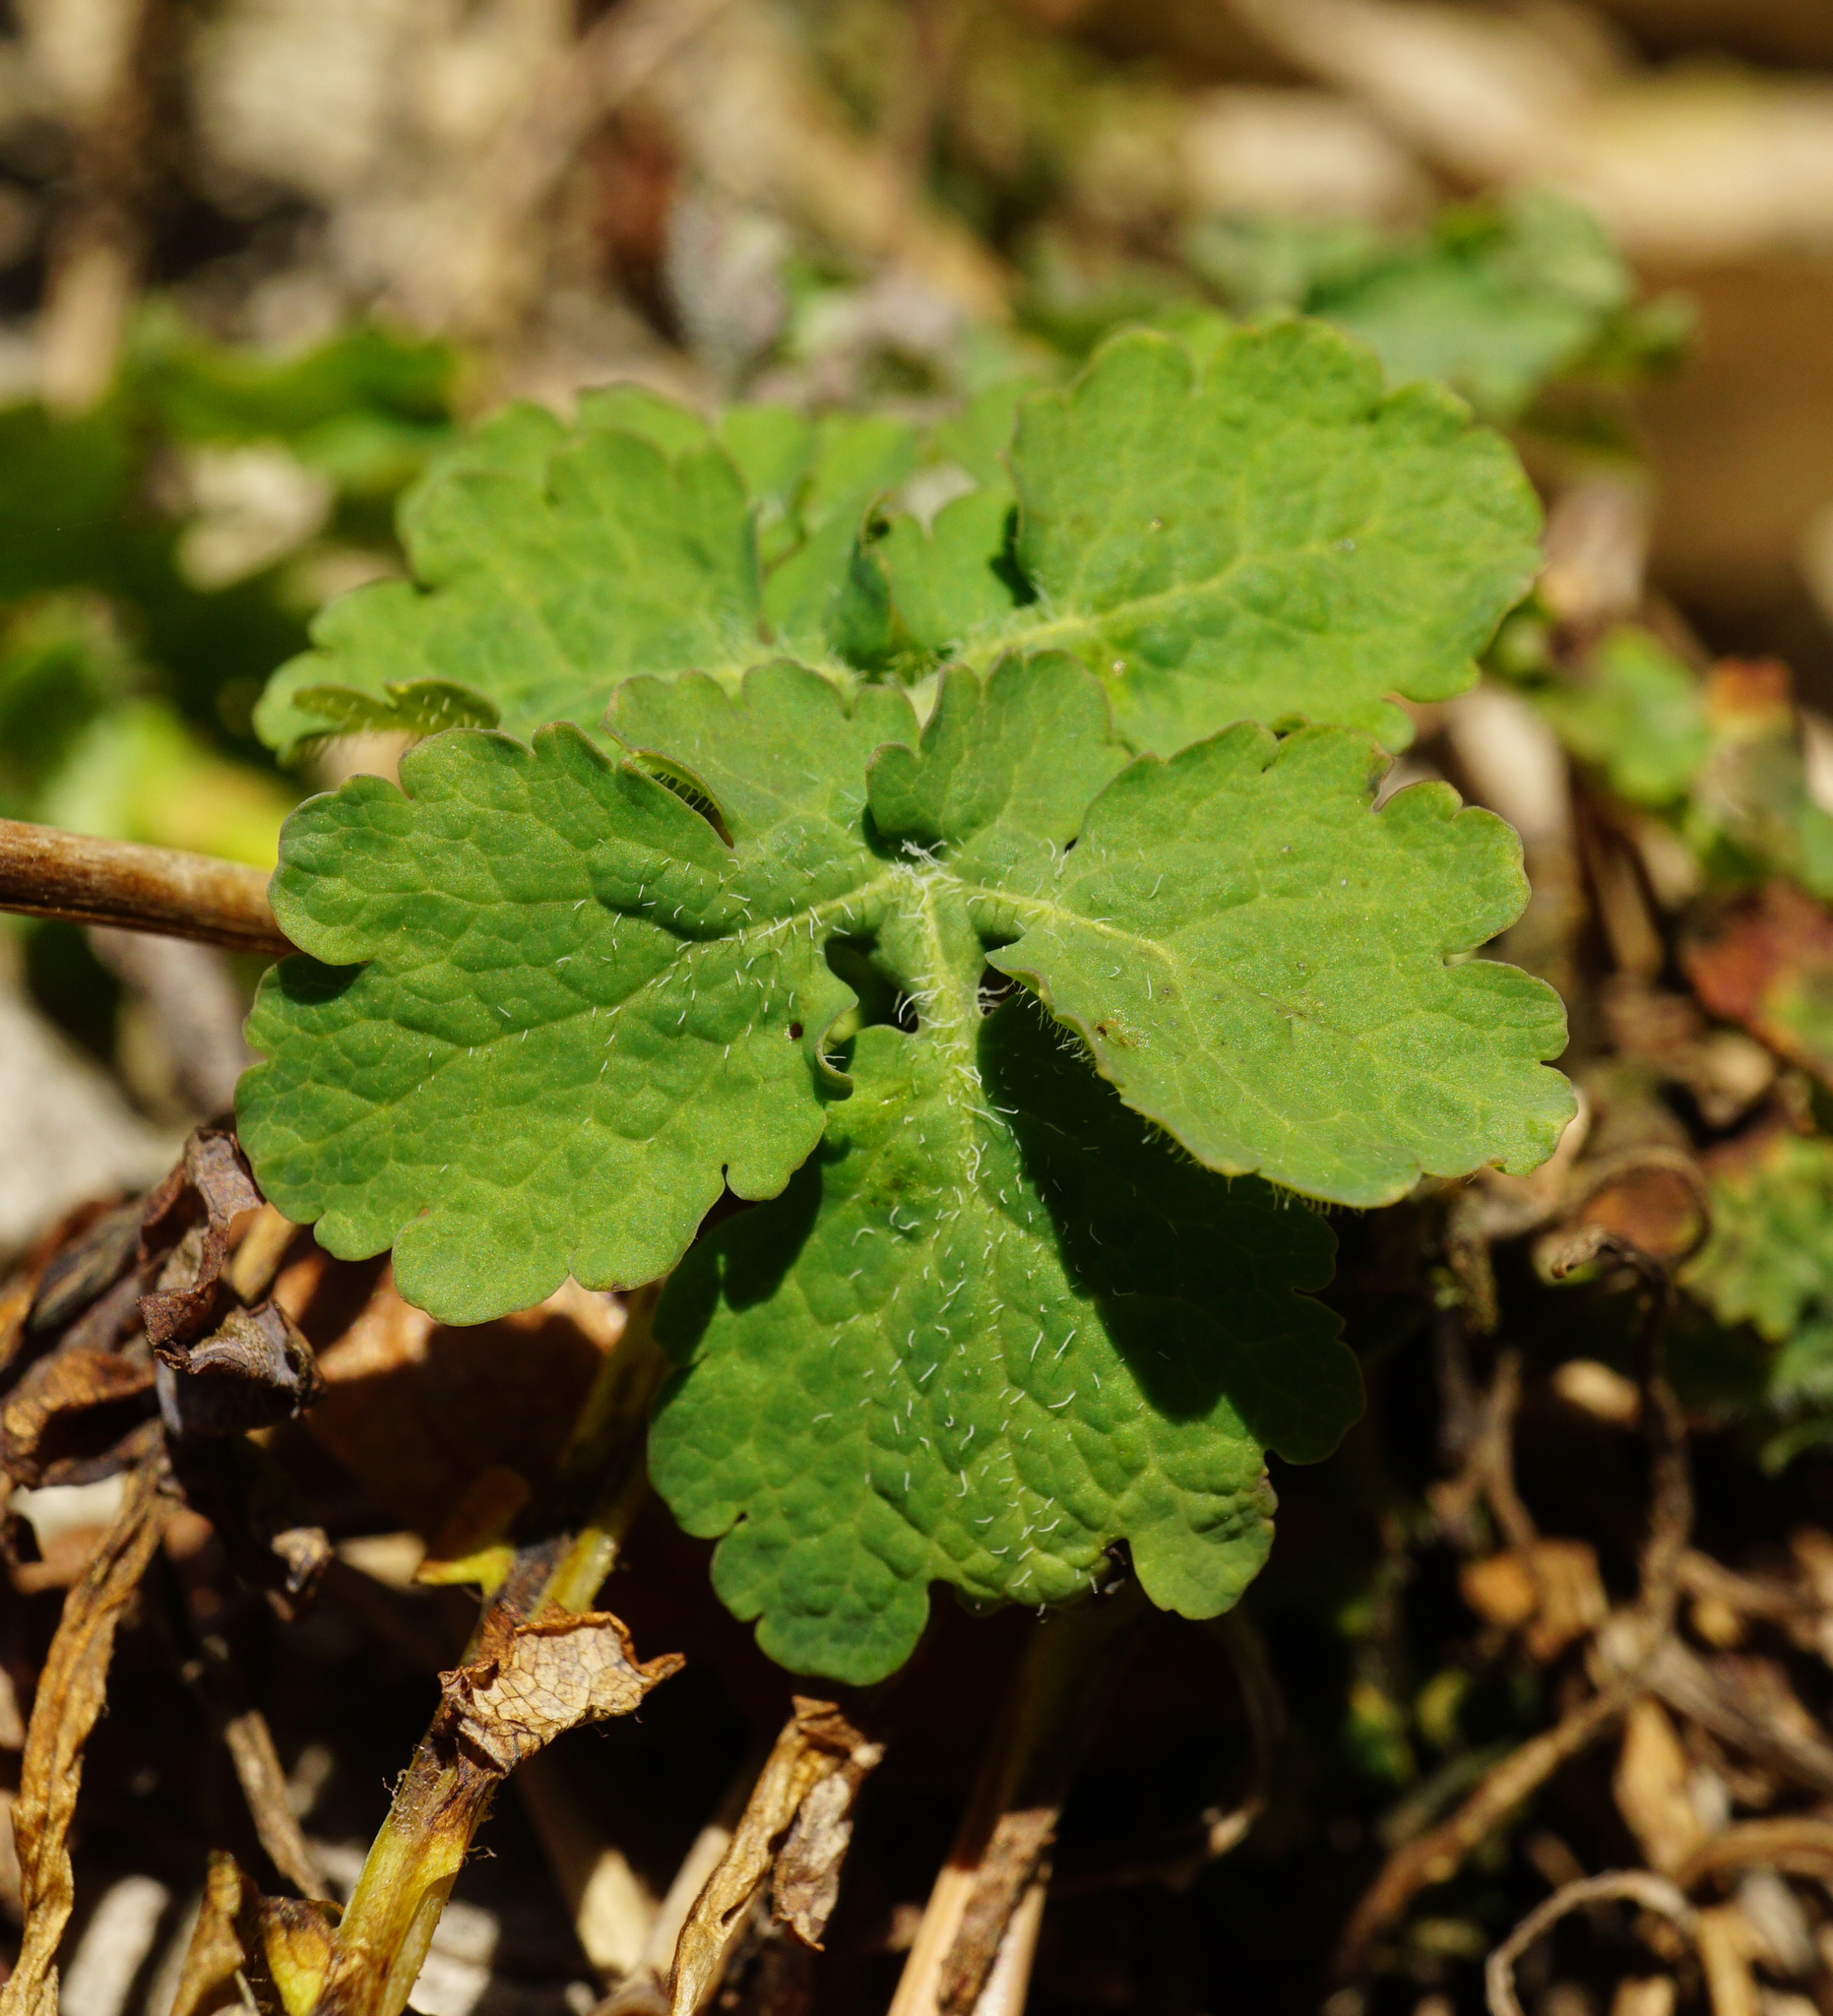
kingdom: Plantae
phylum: Tracheophyta
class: Magnoliopsida
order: Ranunculales
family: Papaveraceae
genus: Chelidonium
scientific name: Chelidonium majus
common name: Greater celandine
